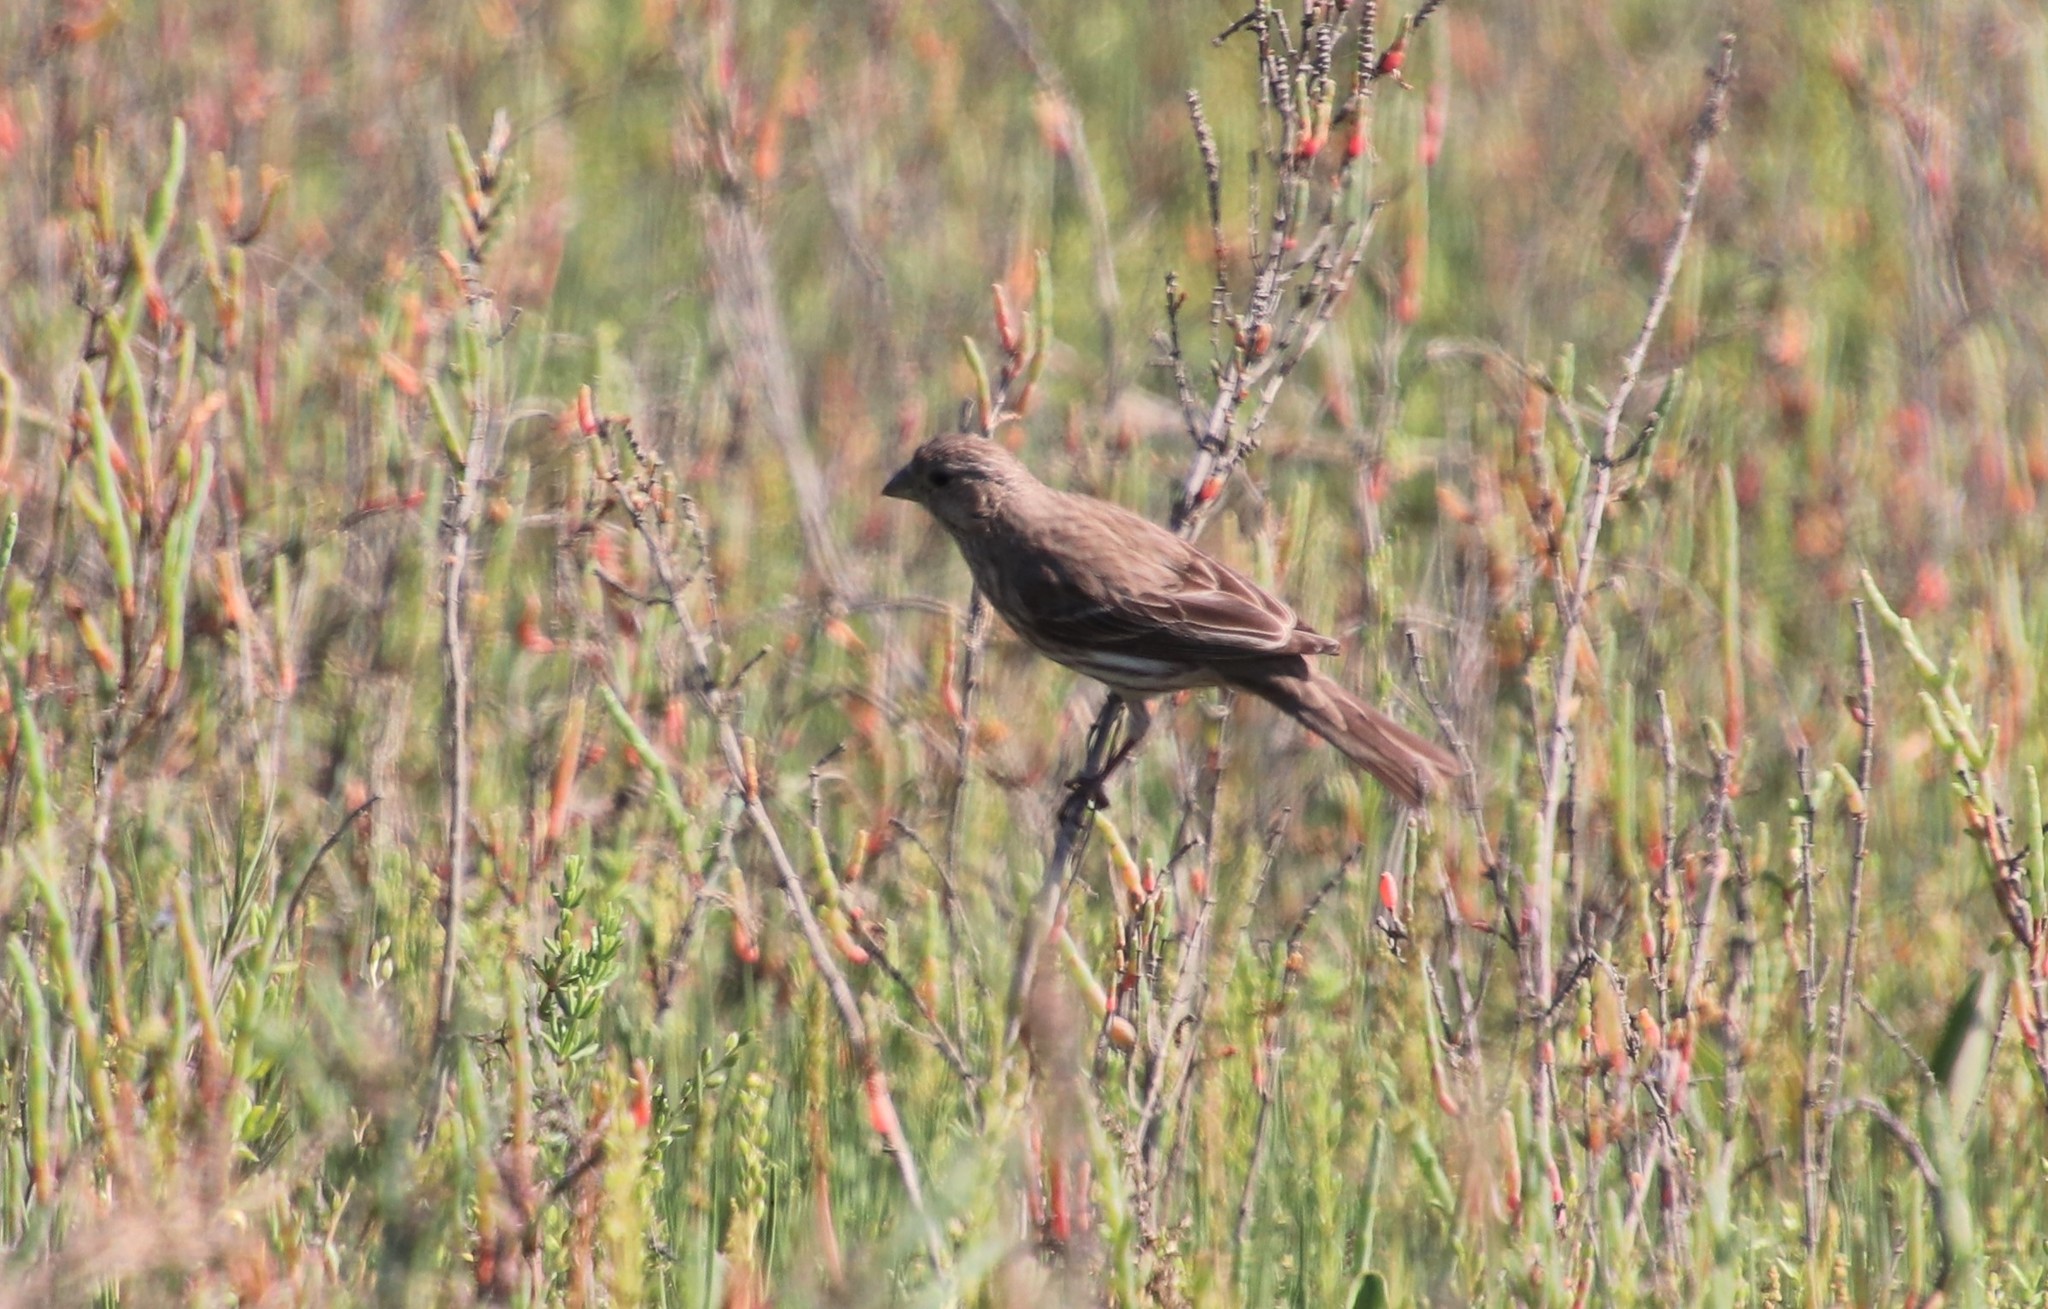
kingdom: Animalia
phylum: Chordata
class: Aves
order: Passeriformes
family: Fringillidae
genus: Haemorhous
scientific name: Haemorhous mexicanus
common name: House finch
